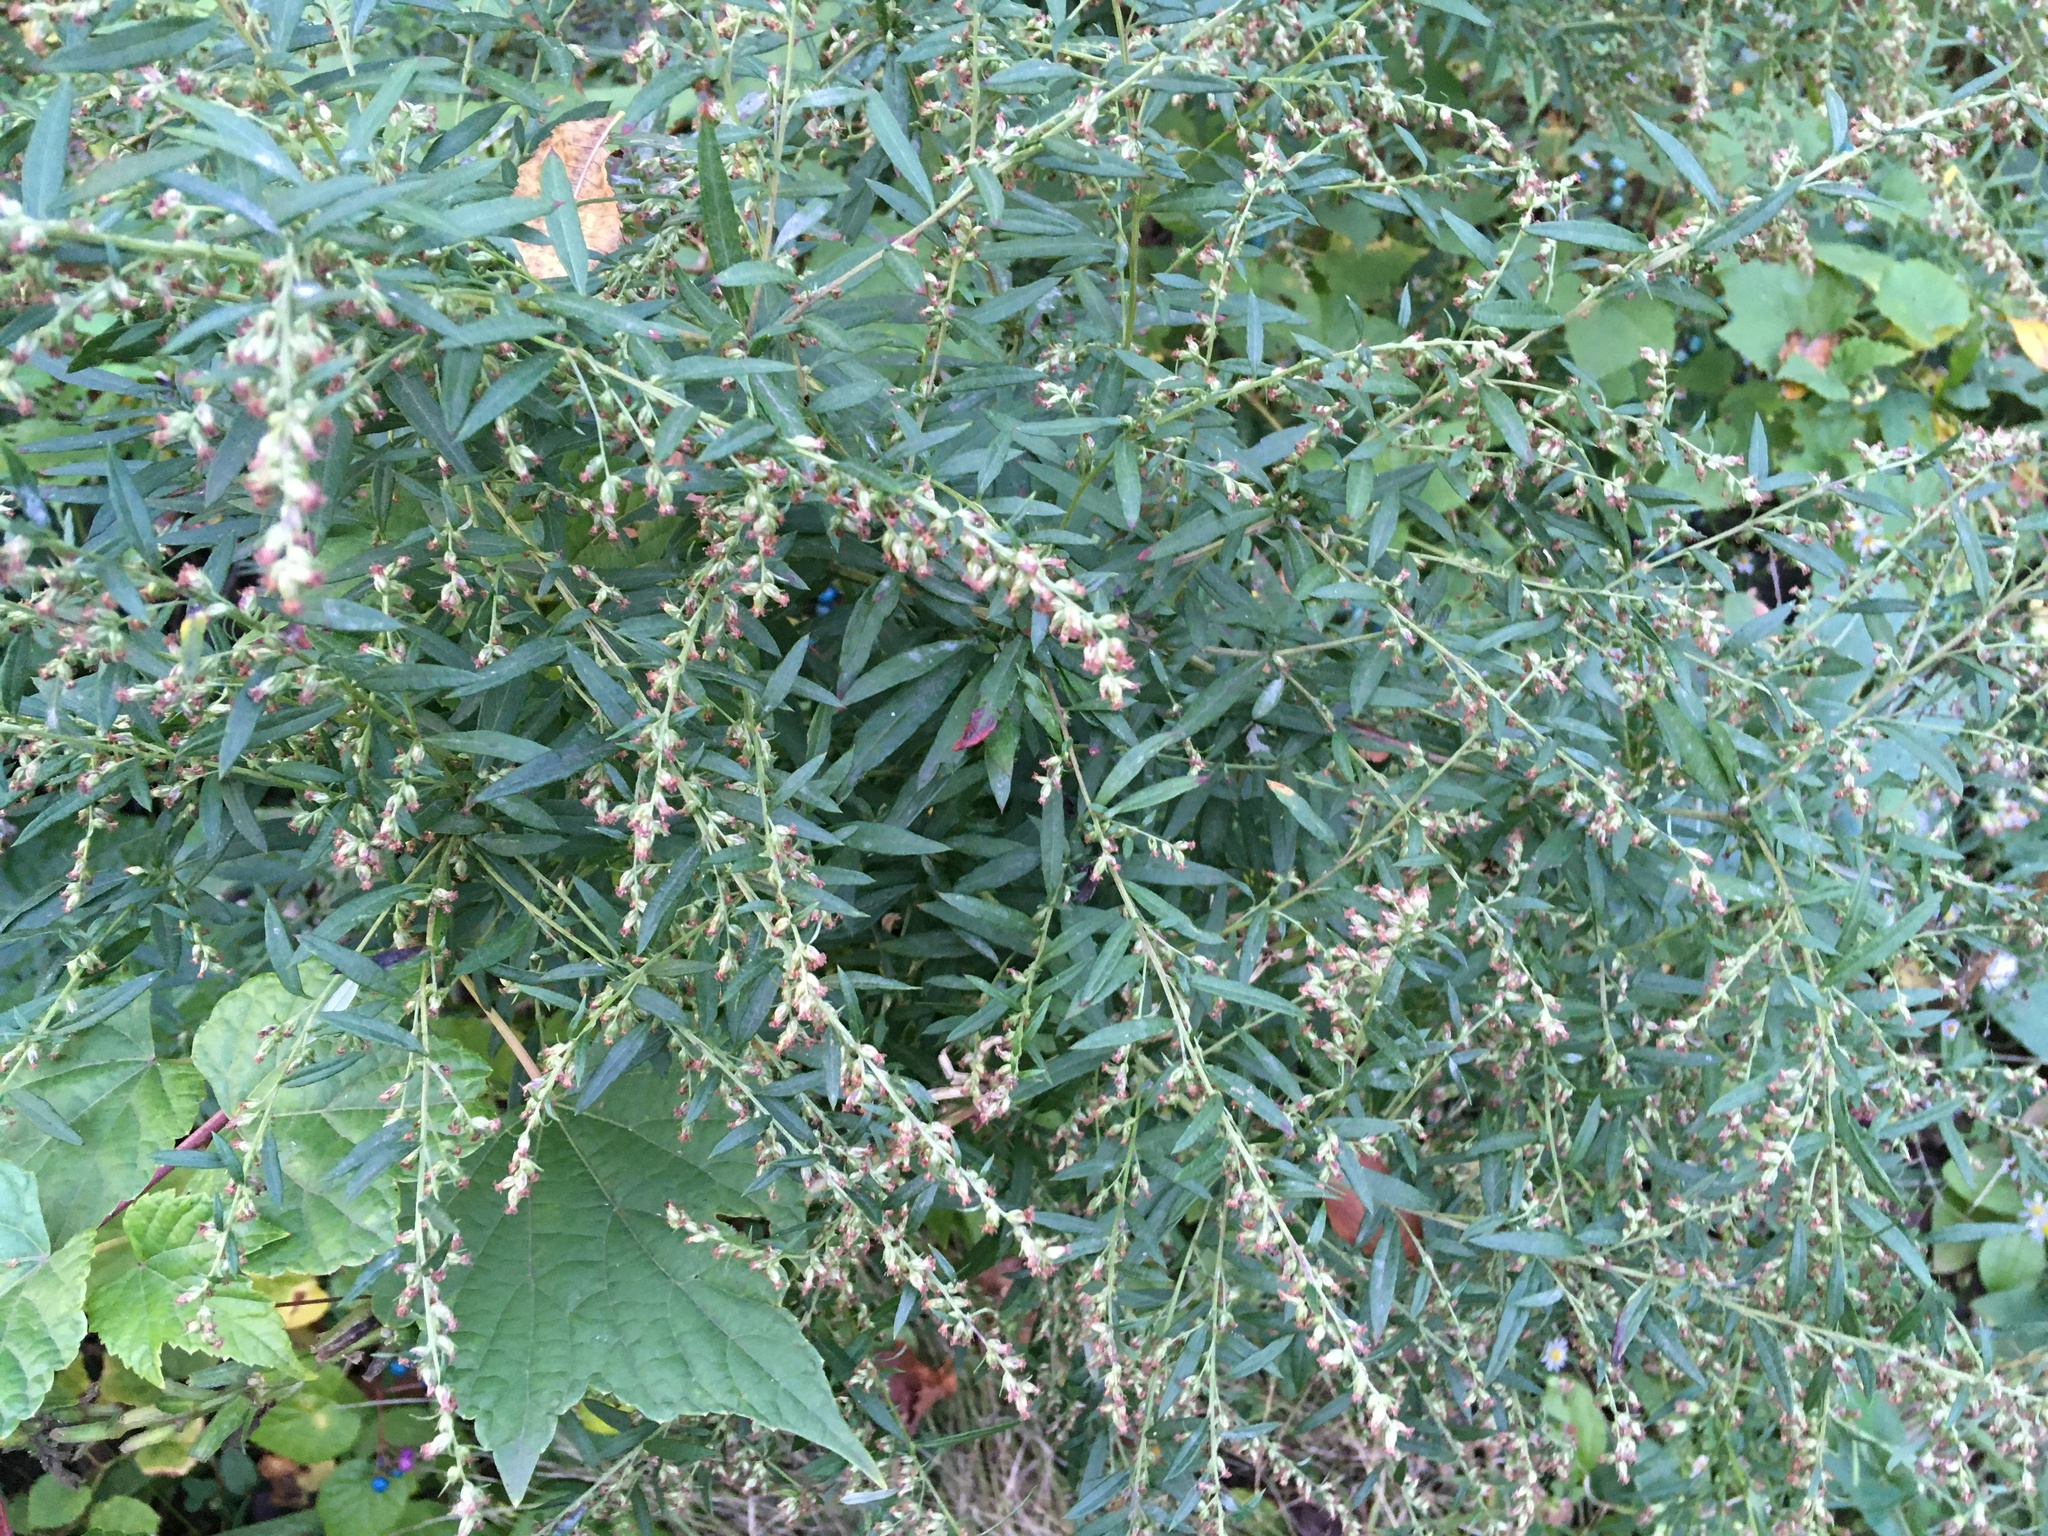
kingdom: Plantae
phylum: Tracheophyta
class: Magnoliopsida
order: Asterales
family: Asteraceae
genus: Artemisia
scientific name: Artemisia vulgaris
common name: Mugwort
